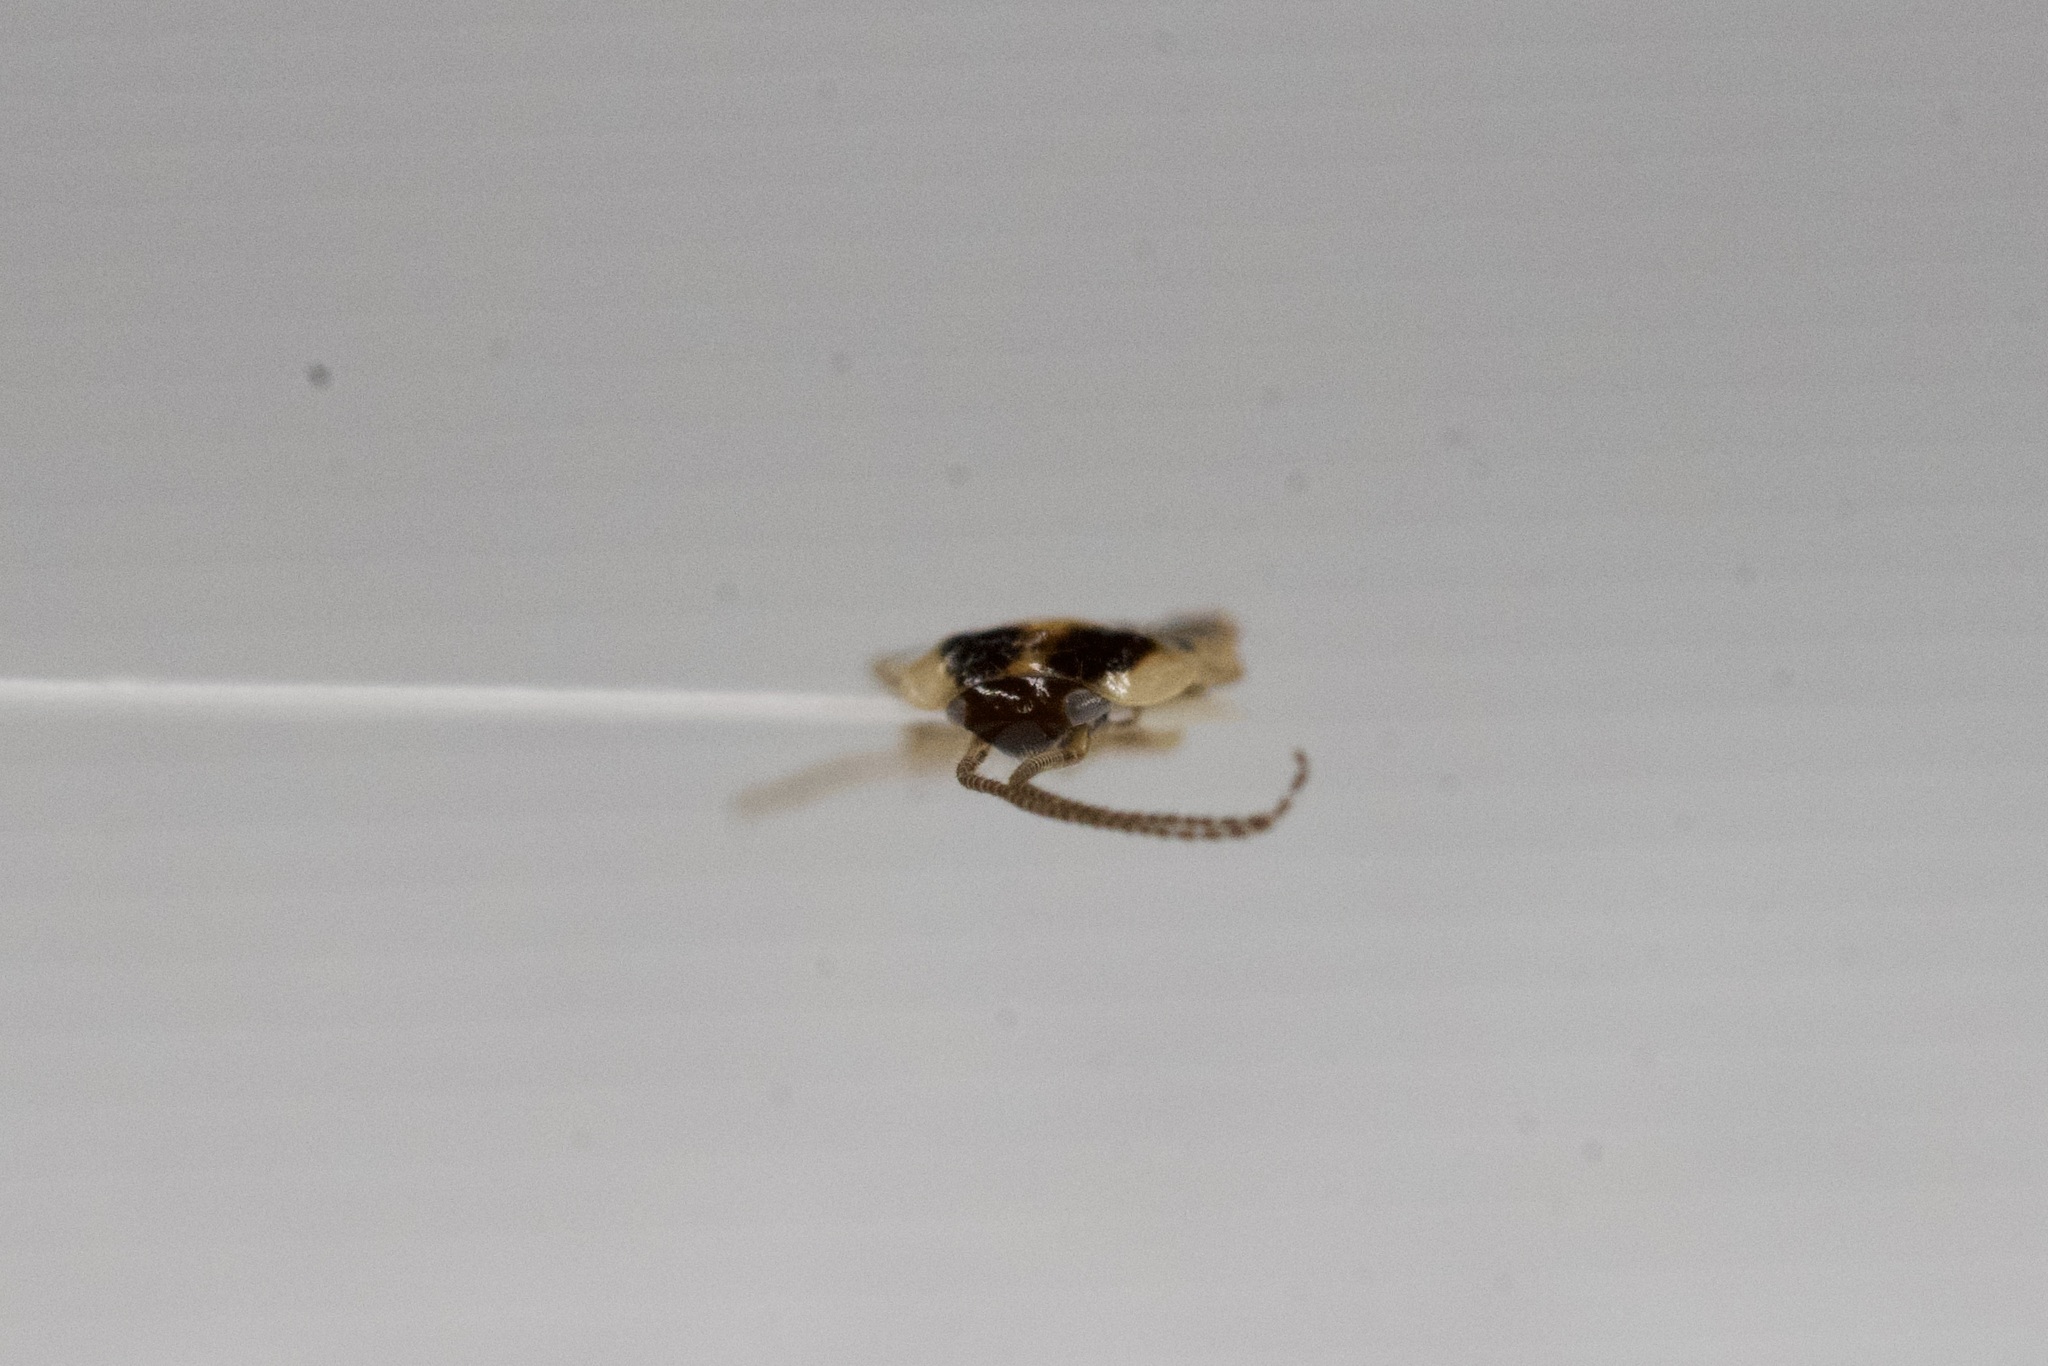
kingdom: Animalia
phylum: Arthropoda
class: Insecta
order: Blattodea
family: Ectobiidae
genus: Blattella
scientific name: Blattella germanica
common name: German cockroach
